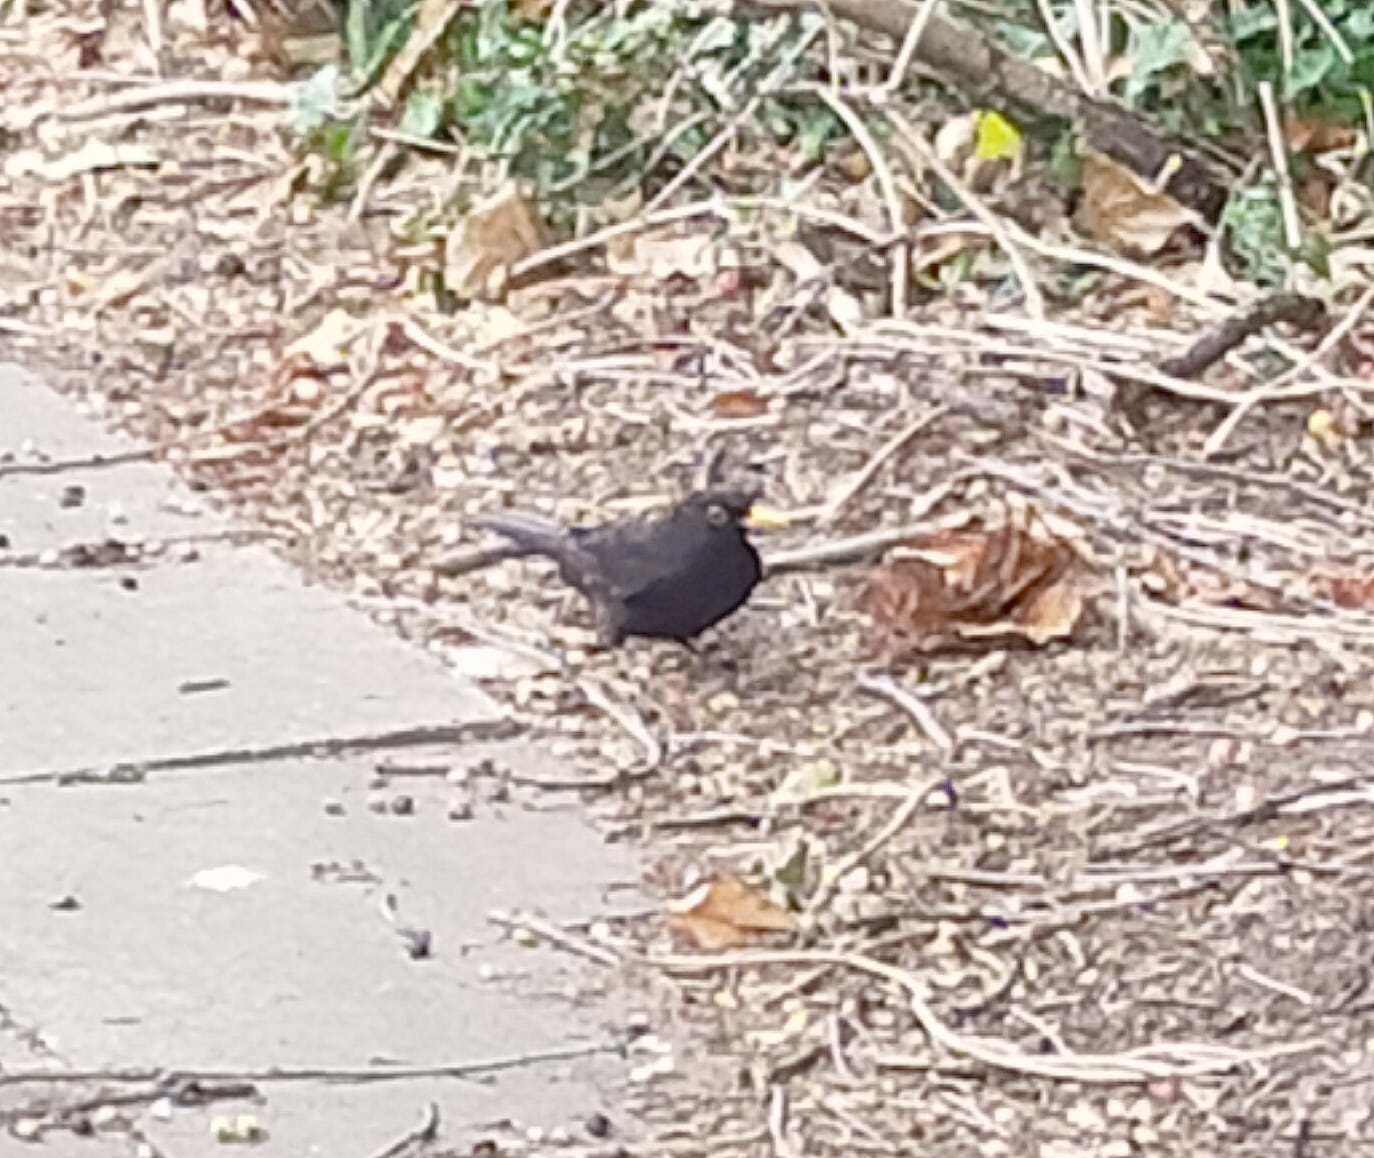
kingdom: Animalia
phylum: Chordata
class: Aves
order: Passeriformes
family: Turdidae
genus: Turdus
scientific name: Turdus merula
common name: Common blackbird
